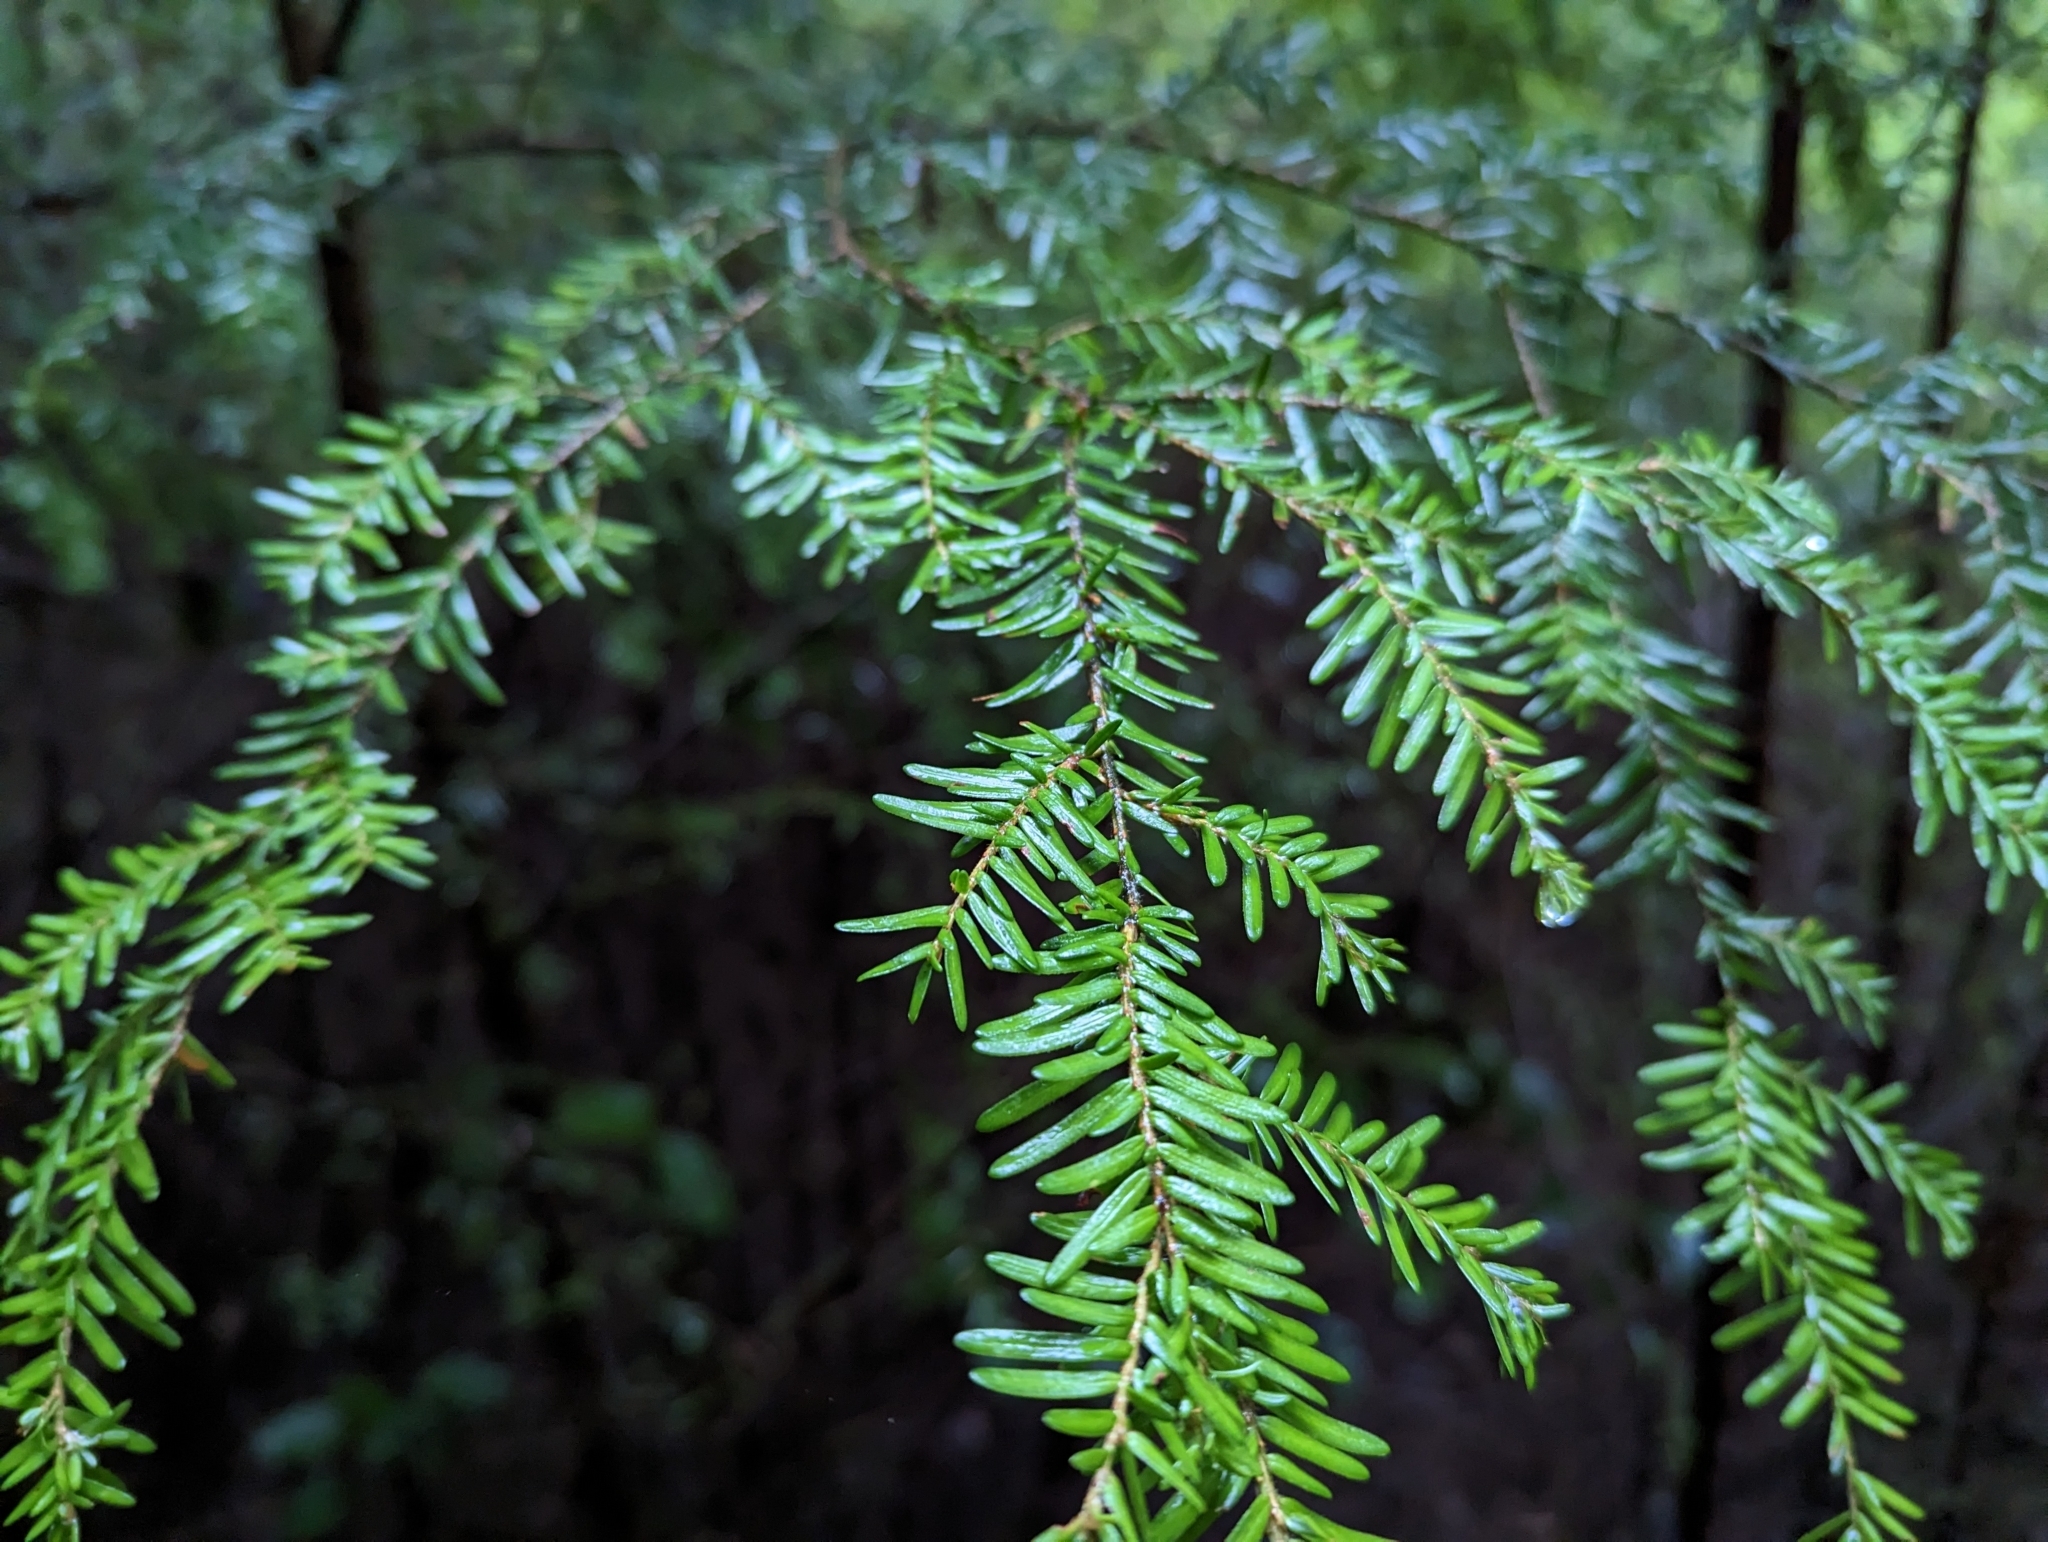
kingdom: Plantae
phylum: Tracheophyta
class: Pinopsida
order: Pinales
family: Pinaceae
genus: Tsuga
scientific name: Tsuga heterophylla
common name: Western hemlock
